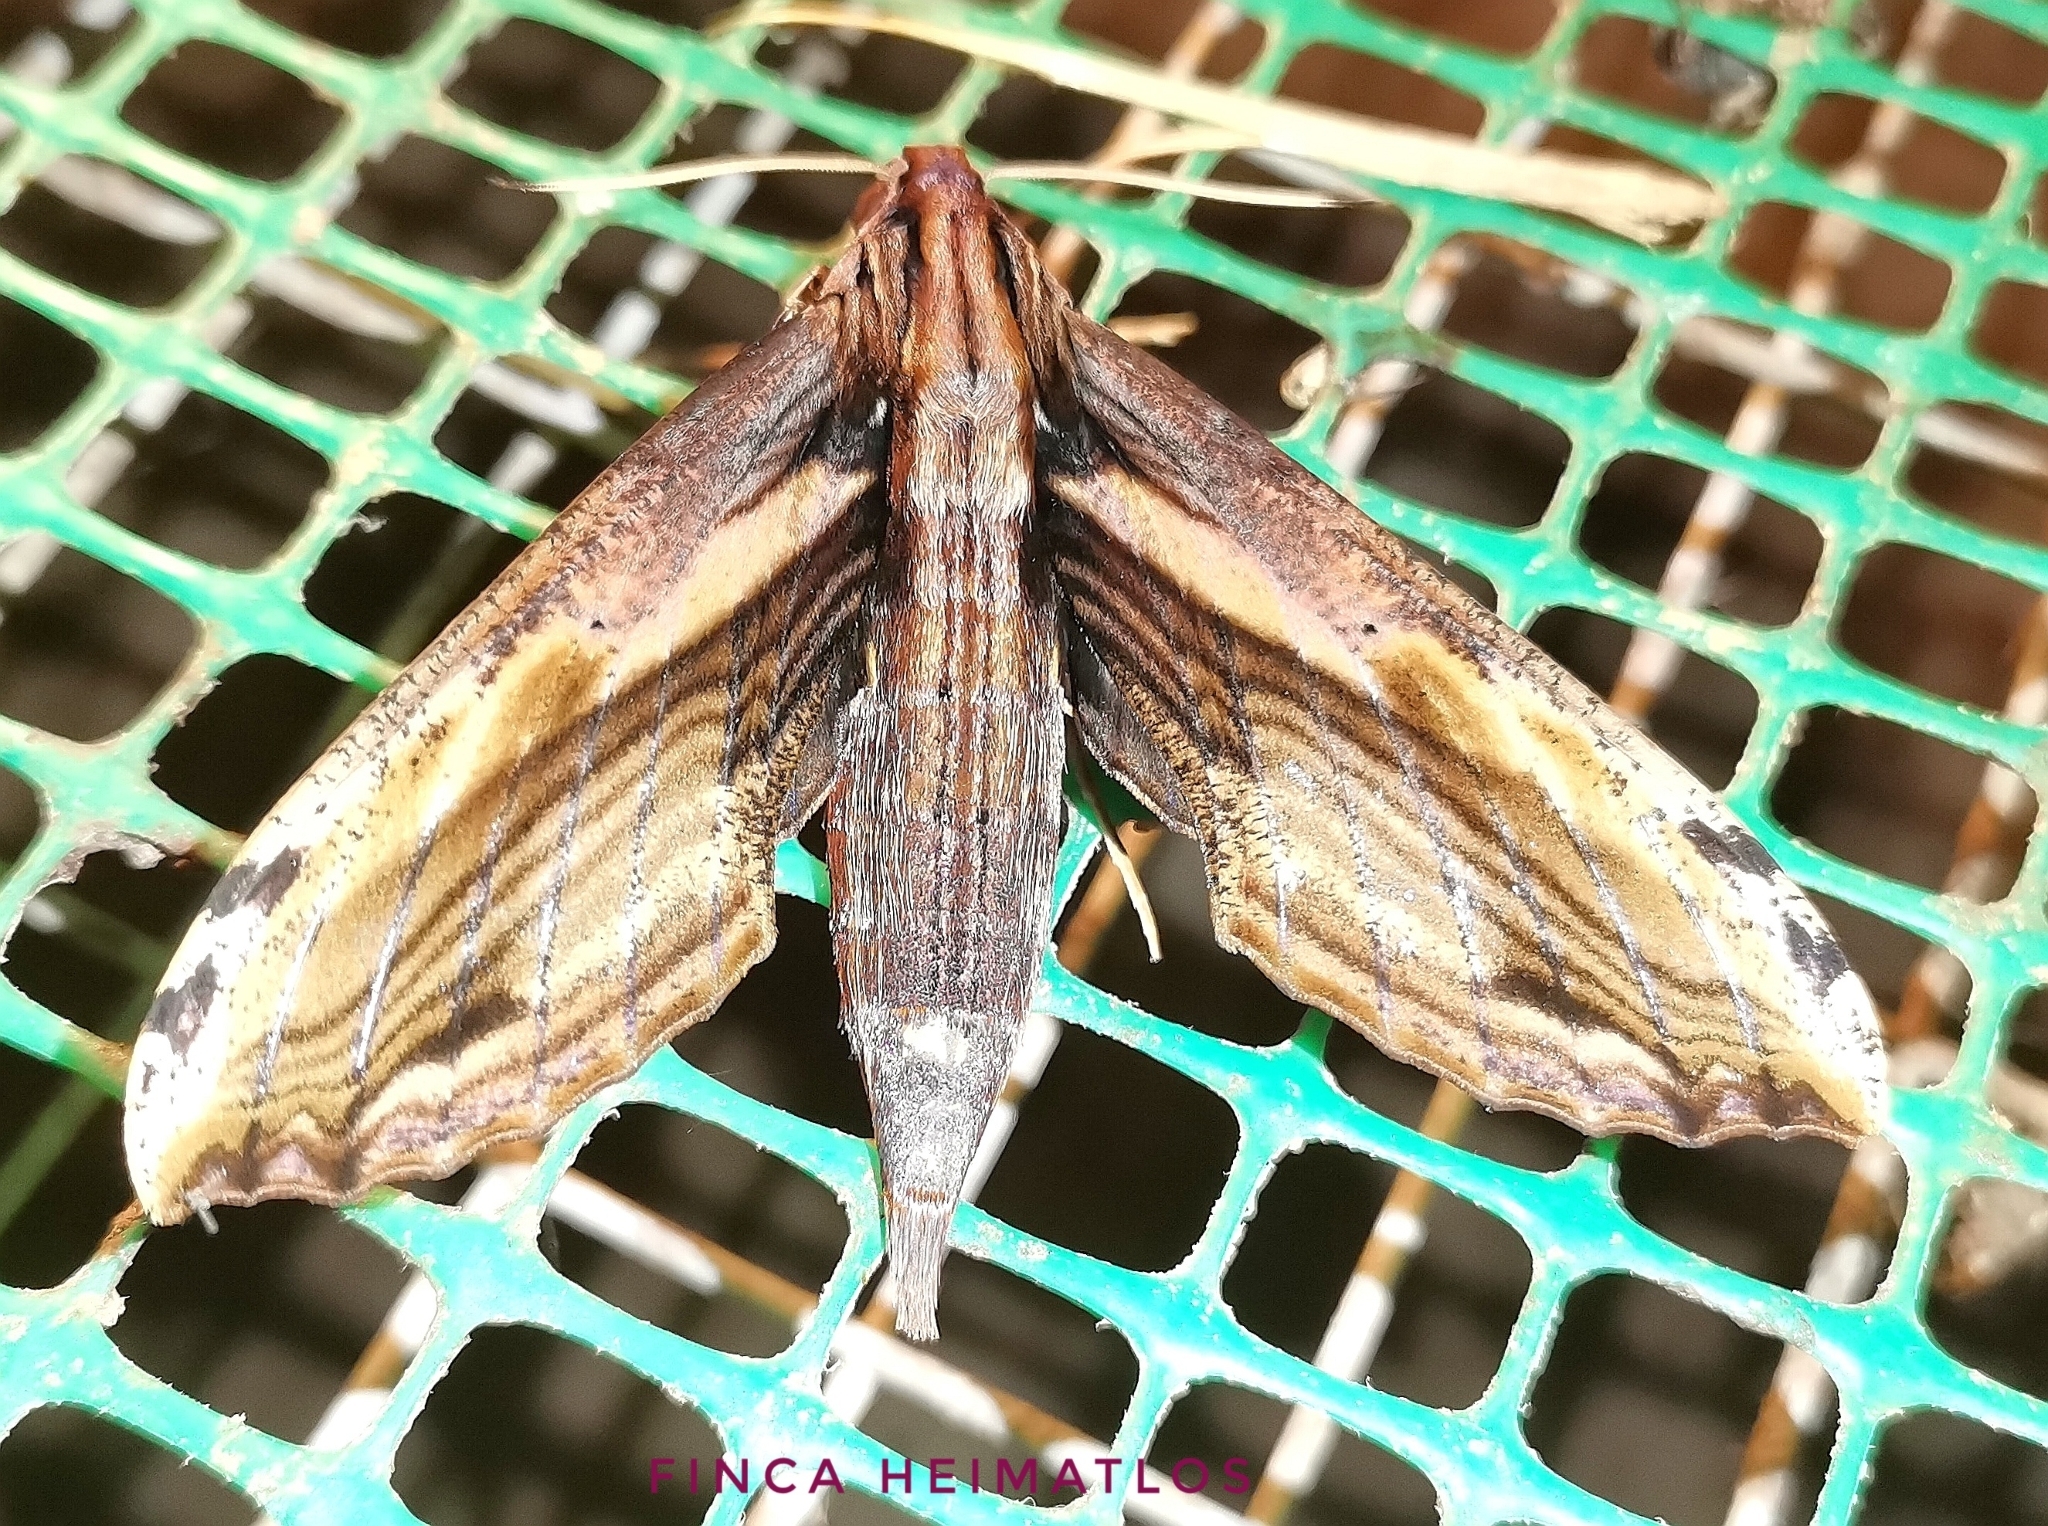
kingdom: Animalia
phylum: Arthropoda
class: Insecta
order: Lepidoptera
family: Sphingidae
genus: Xylophanes
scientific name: Xylophanes ceratomioides
